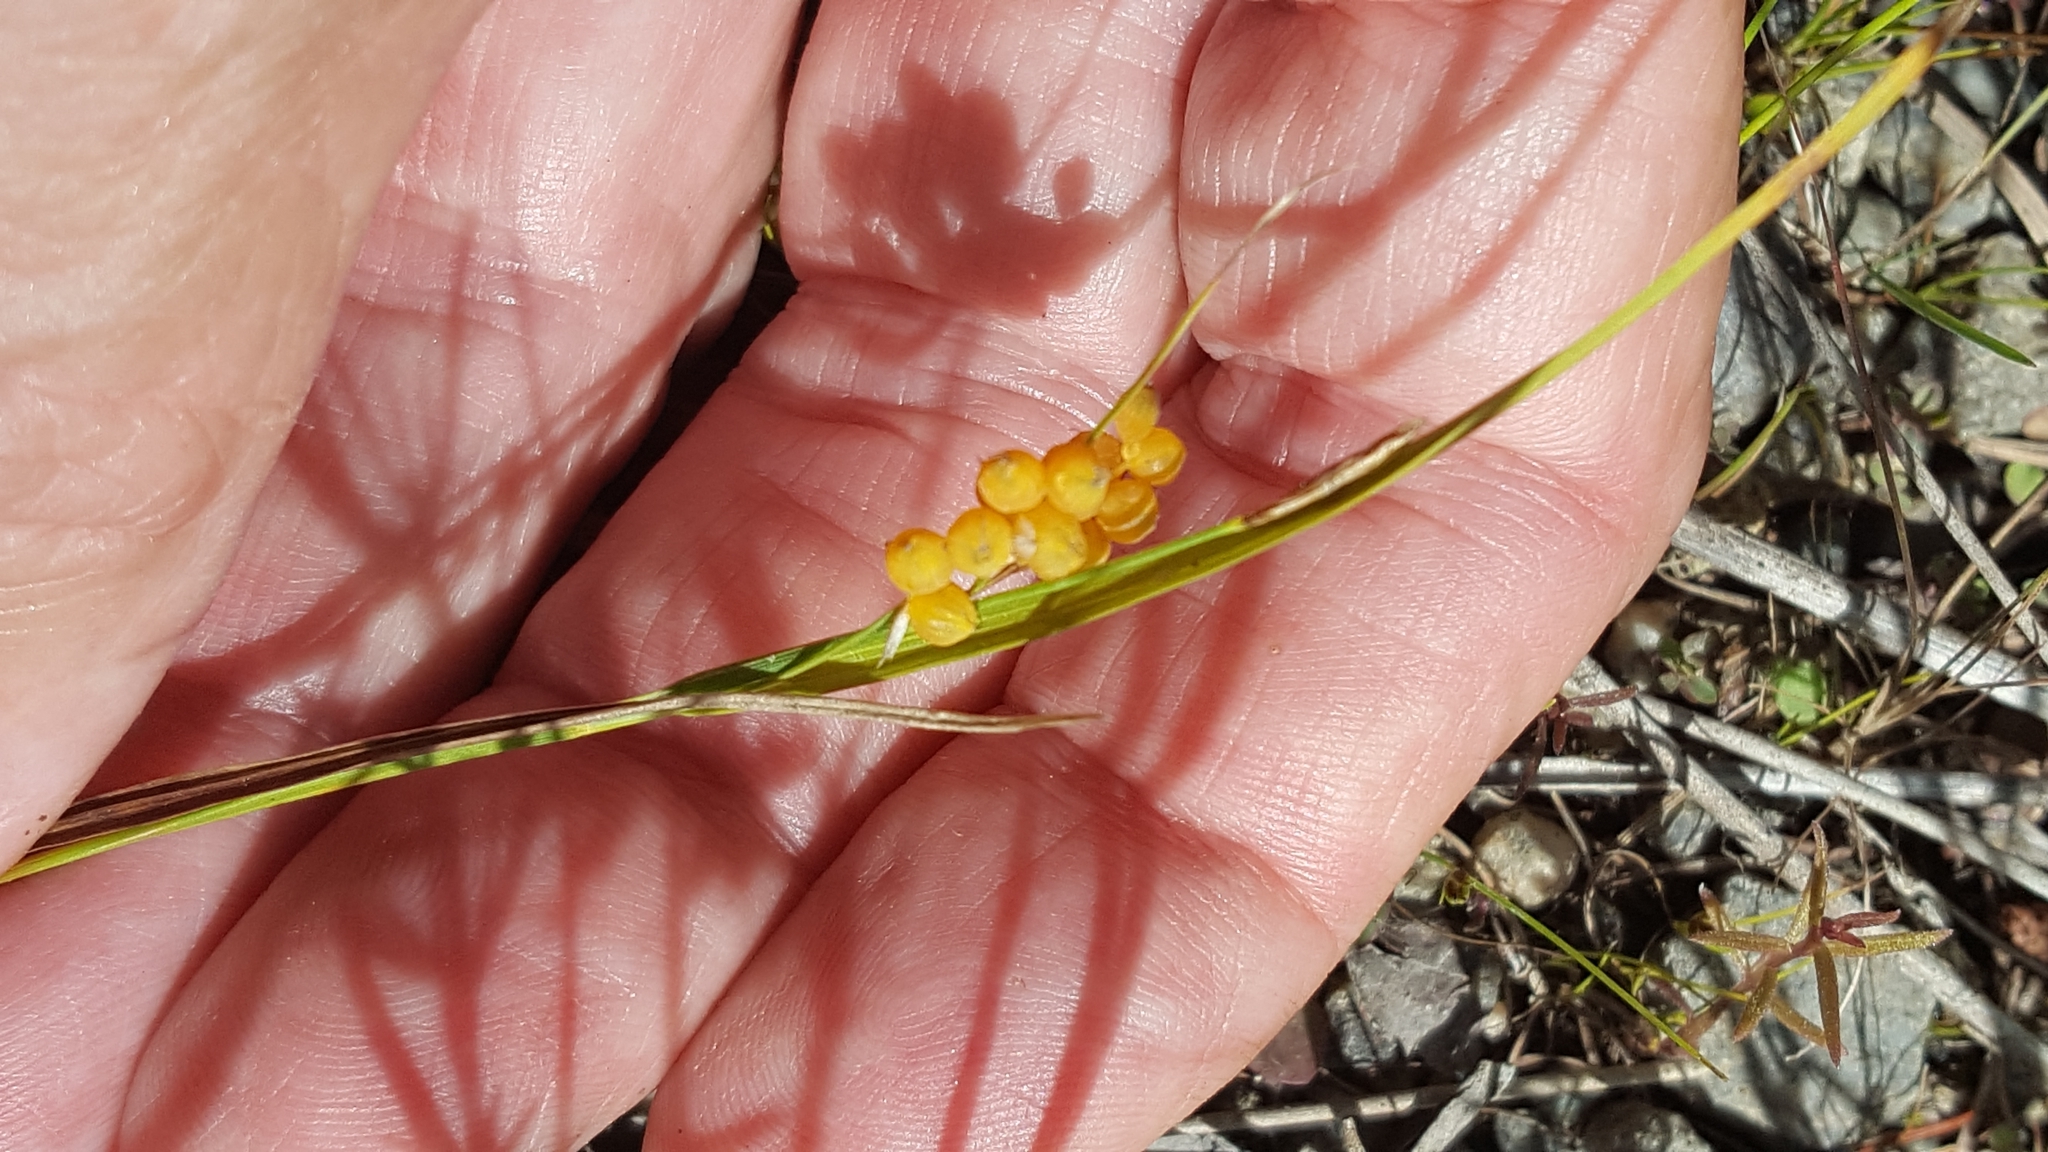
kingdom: Plantae
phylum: Tracheophyta
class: Liliopsida
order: Poales
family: Cyperaceae
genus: Carex
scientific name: Carex aurea
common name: Golden sedge
